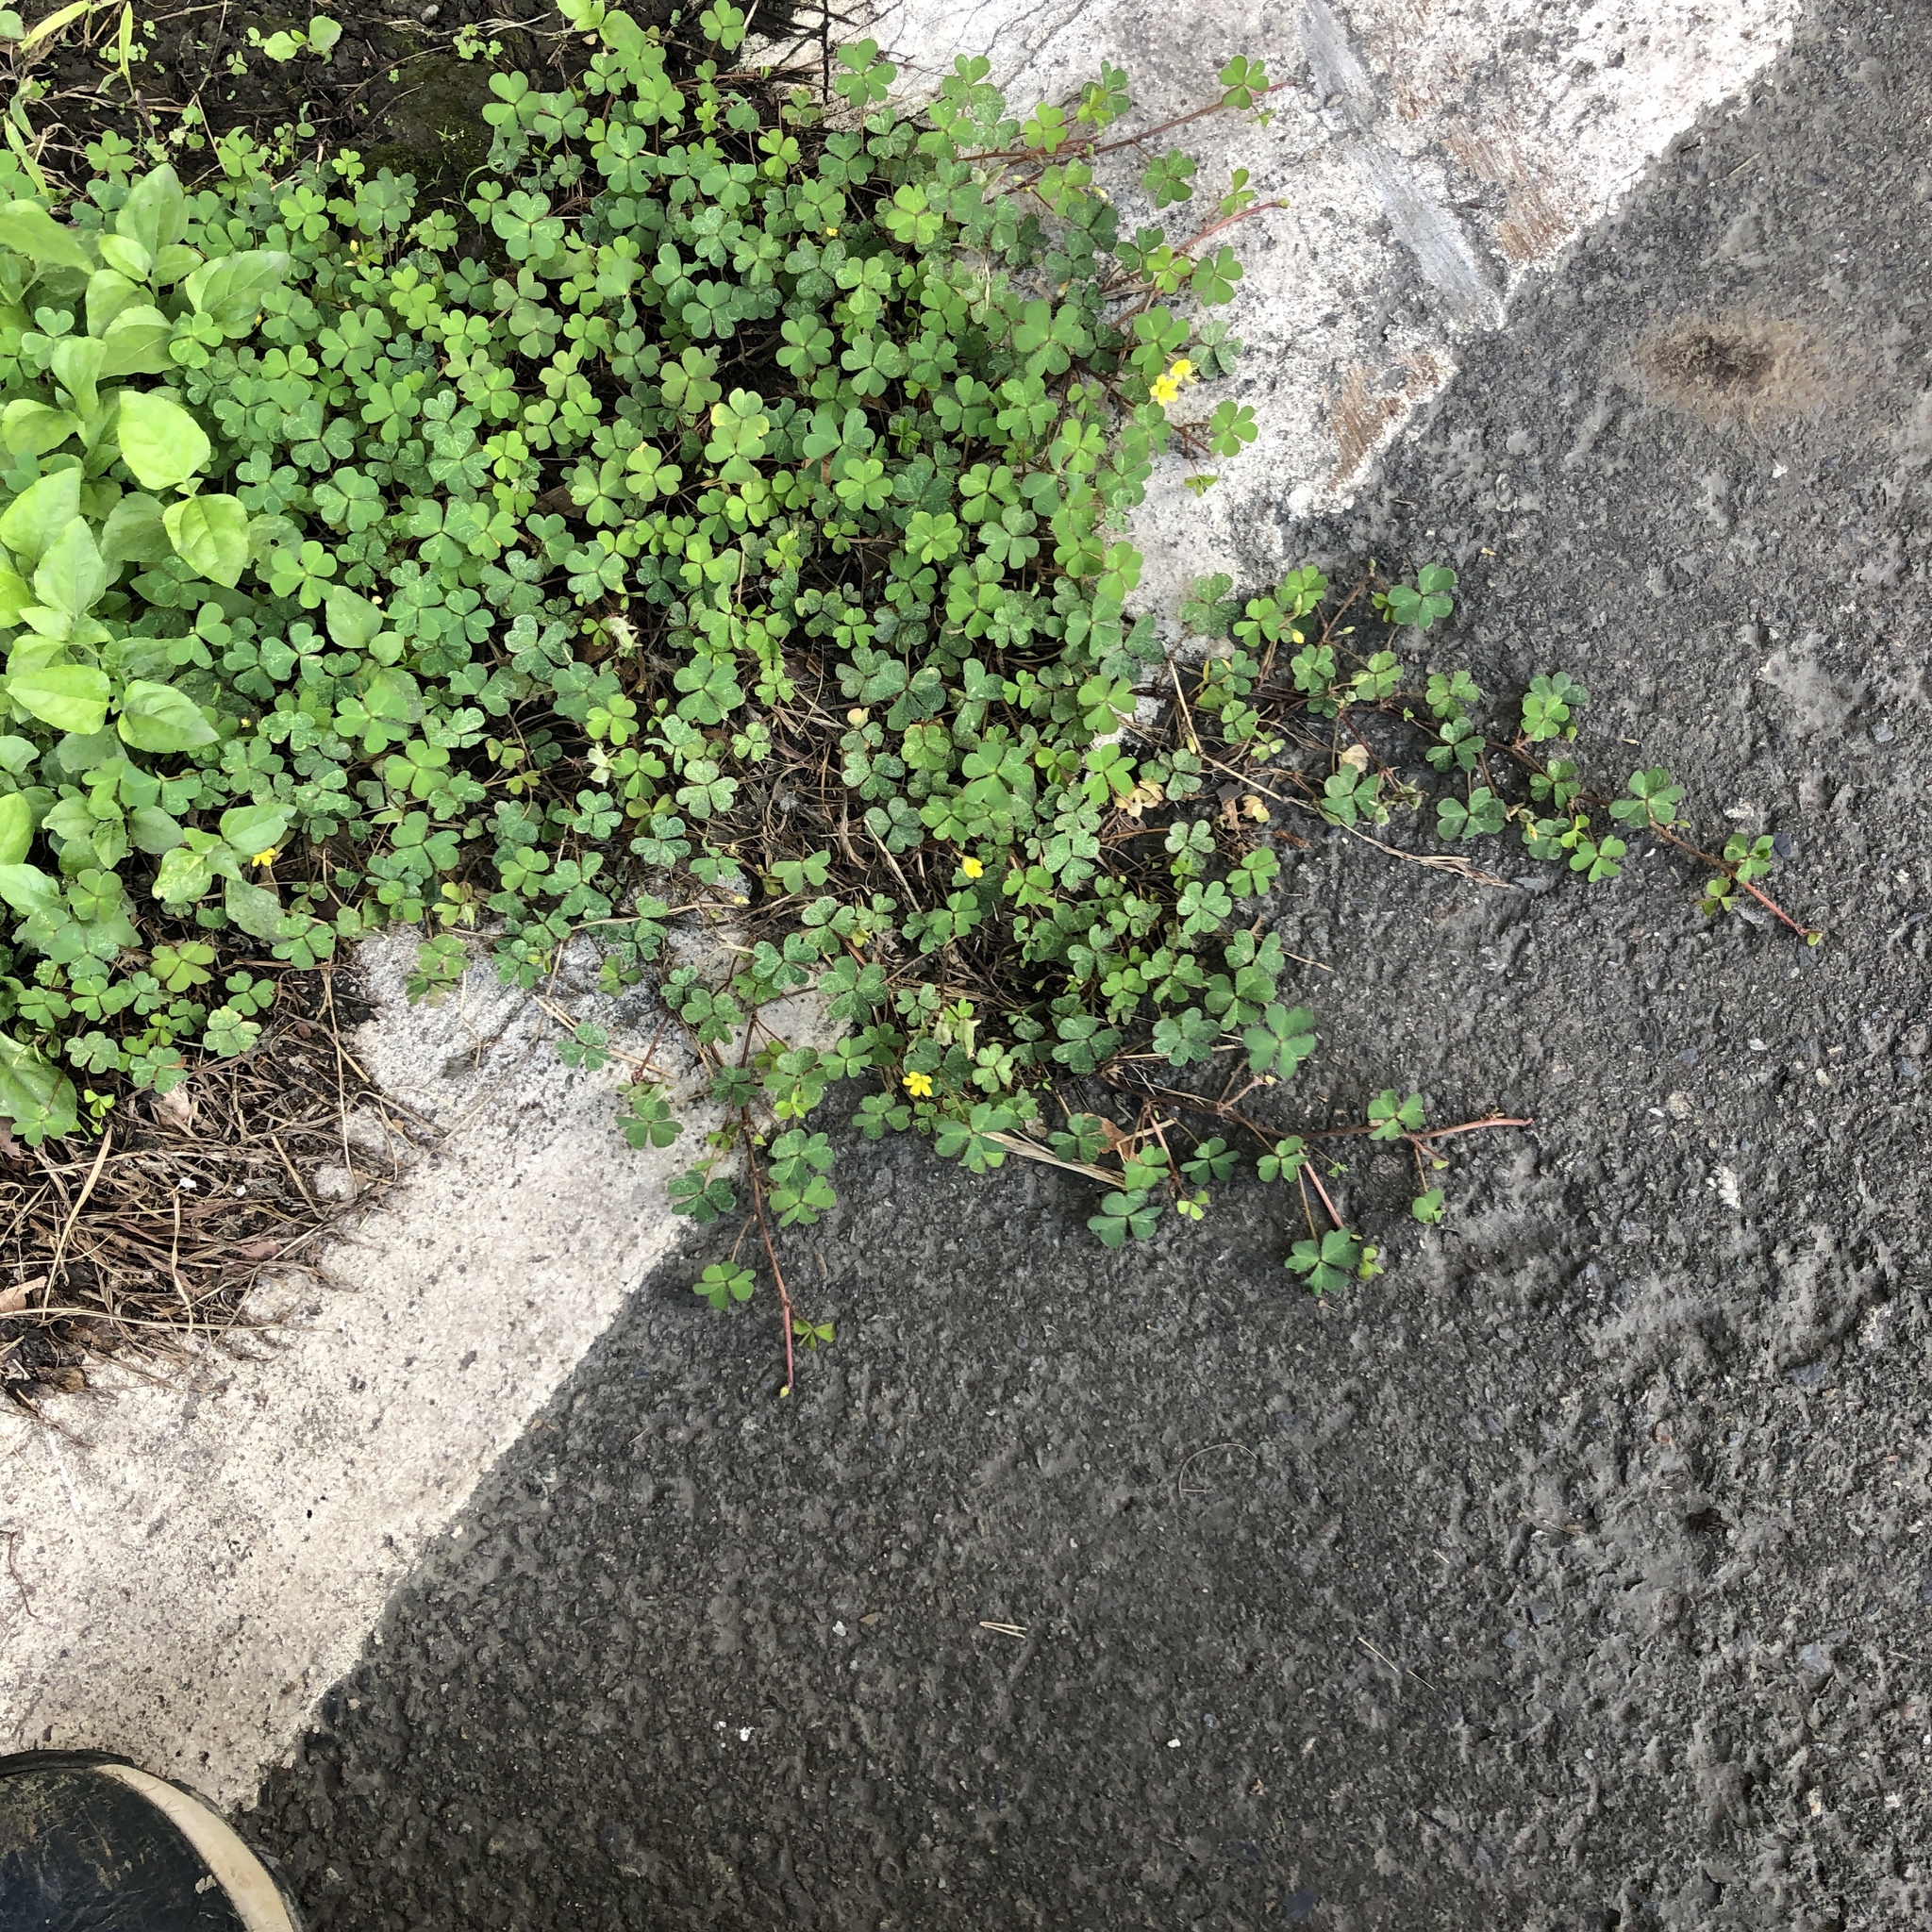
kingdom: Plantae
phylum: Tracheophyta
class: Magnoliopsida
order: Oxalidales
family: Oxalidaceae
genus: Oxalis
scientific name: Oxalis corniculata
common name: Procumbent yellow-sorrel
